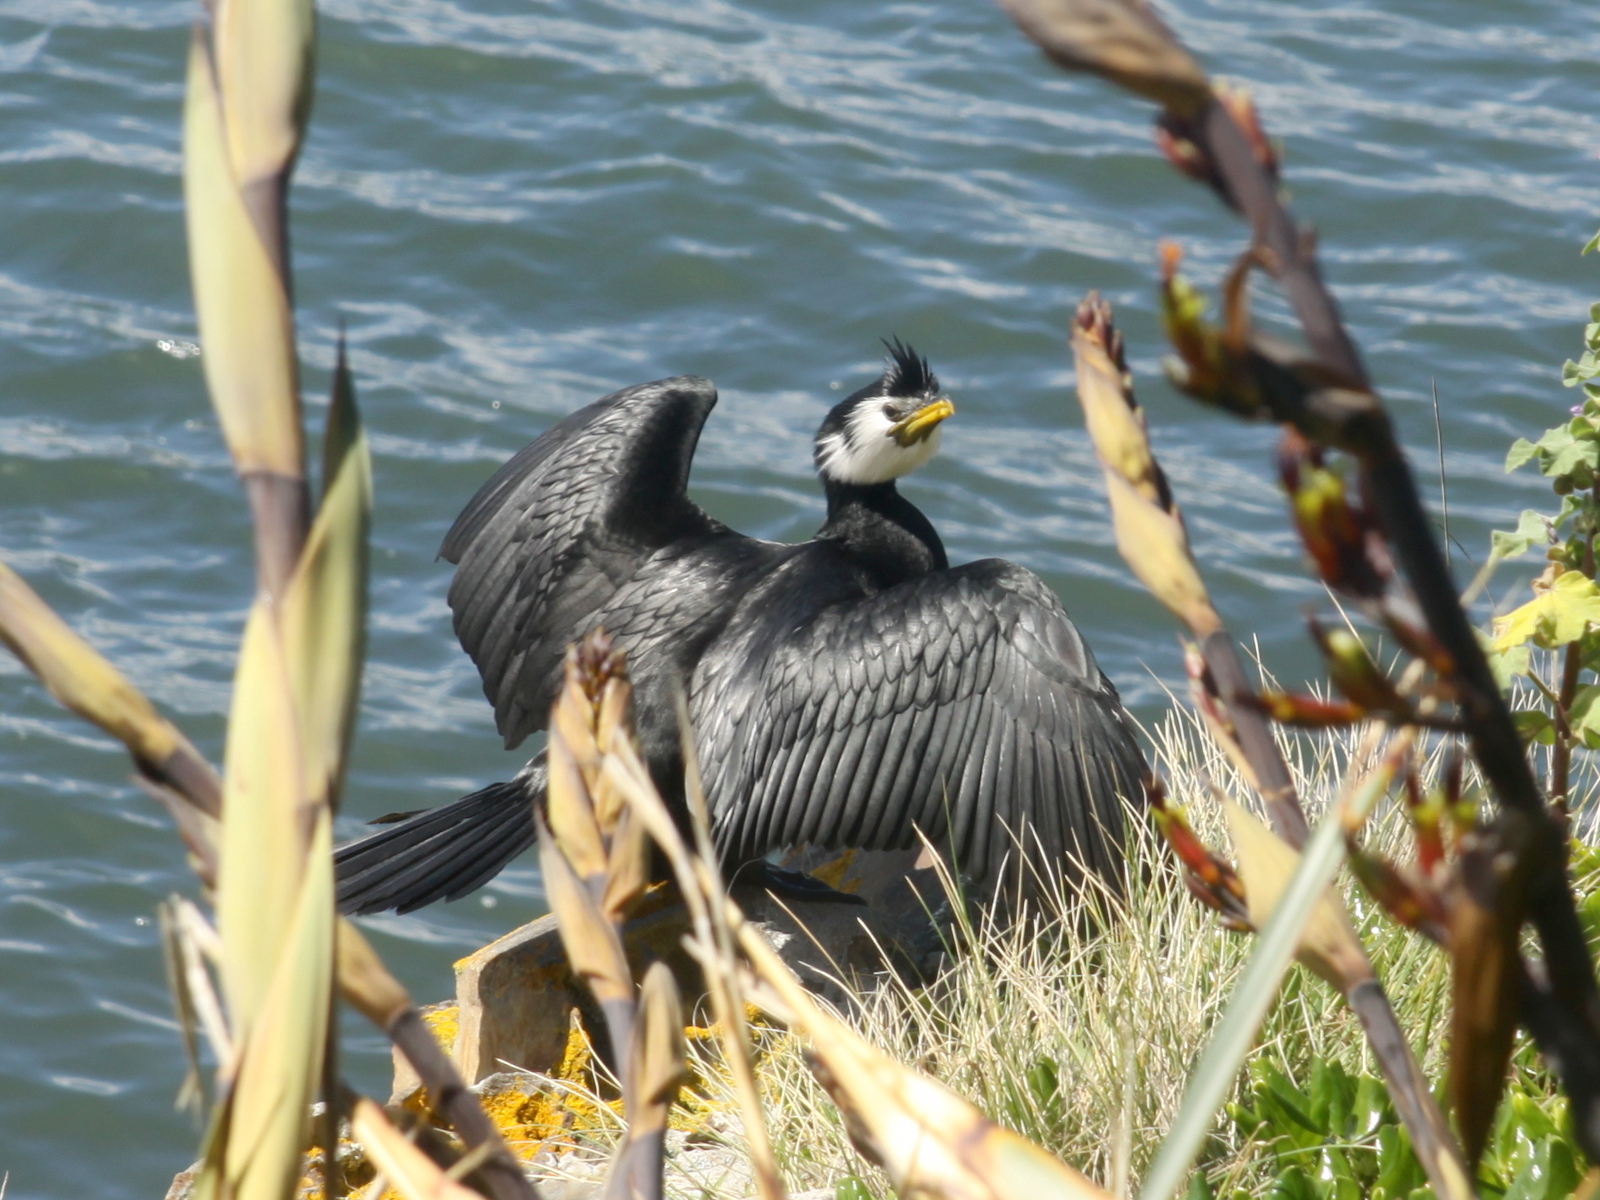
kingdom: Animalia
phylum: Chordata
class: Aves
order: Suliformes
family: Phalacrocoracidae
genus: Microcarbo
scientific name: Microcarbo melanoleucos
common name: Little pied cormorant
